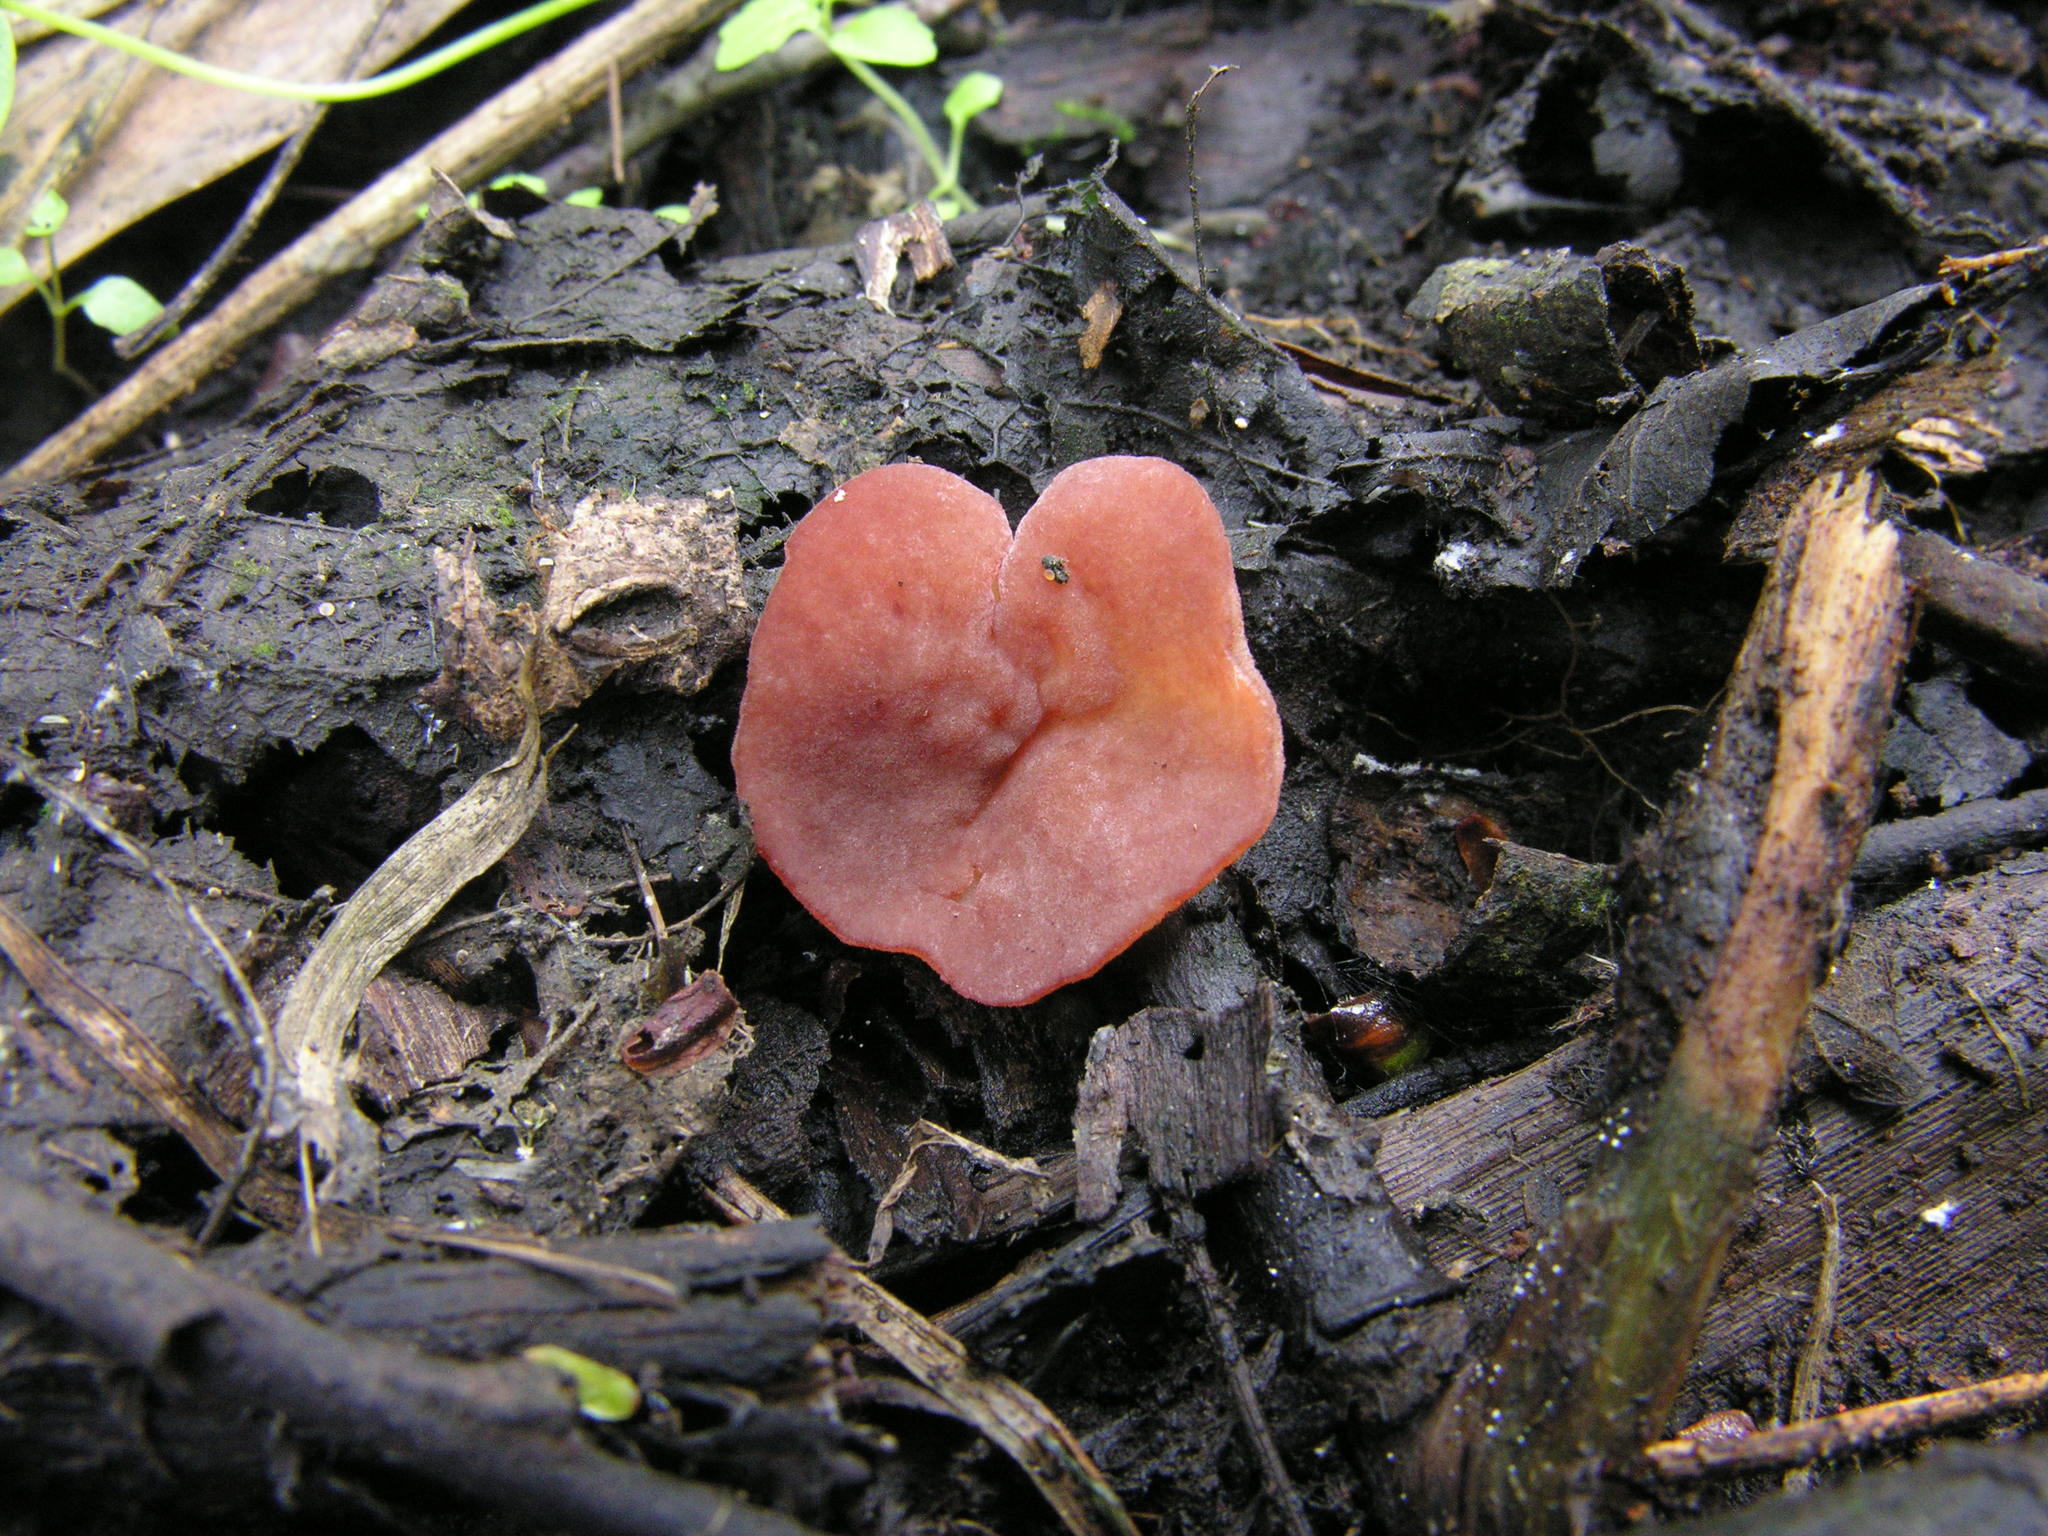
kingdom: Fungi
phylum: Ascomycota
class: Pezizomycetes
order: Pezizales
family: Pezizaceae
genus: Purpureodiscus
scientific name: Purpureodiscus subisabellinus
